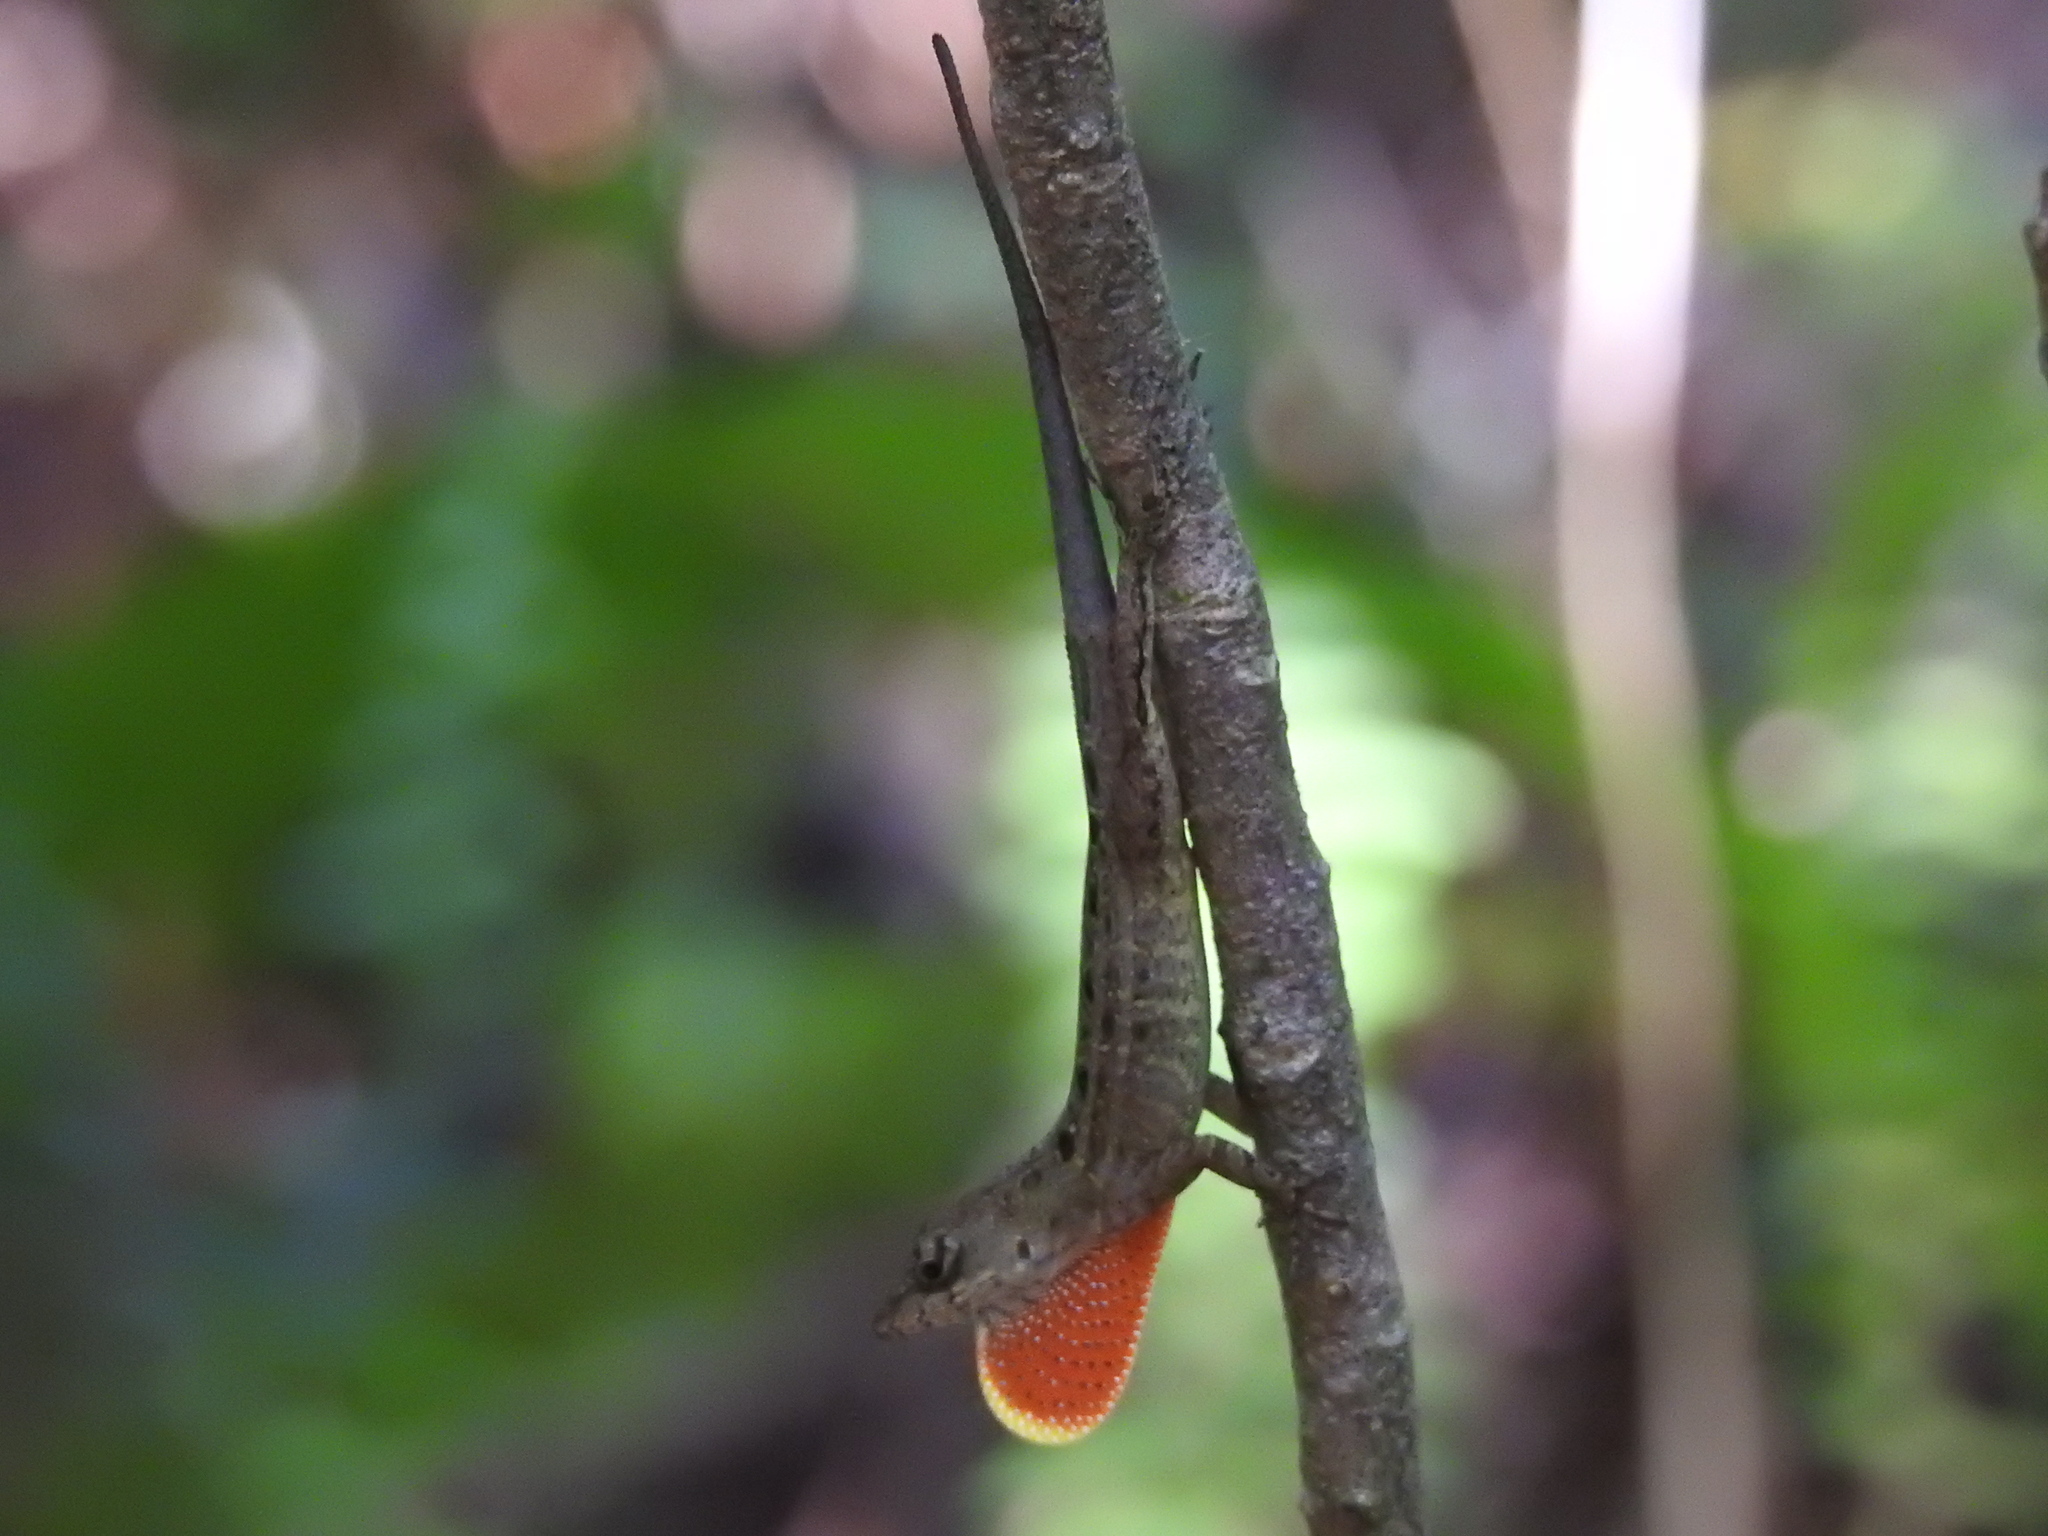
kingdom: Animalia
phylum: Chordata
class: Squamata
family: Dactyloidae
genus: Anolis
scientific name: Anolis sagrei
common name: Brown anole
